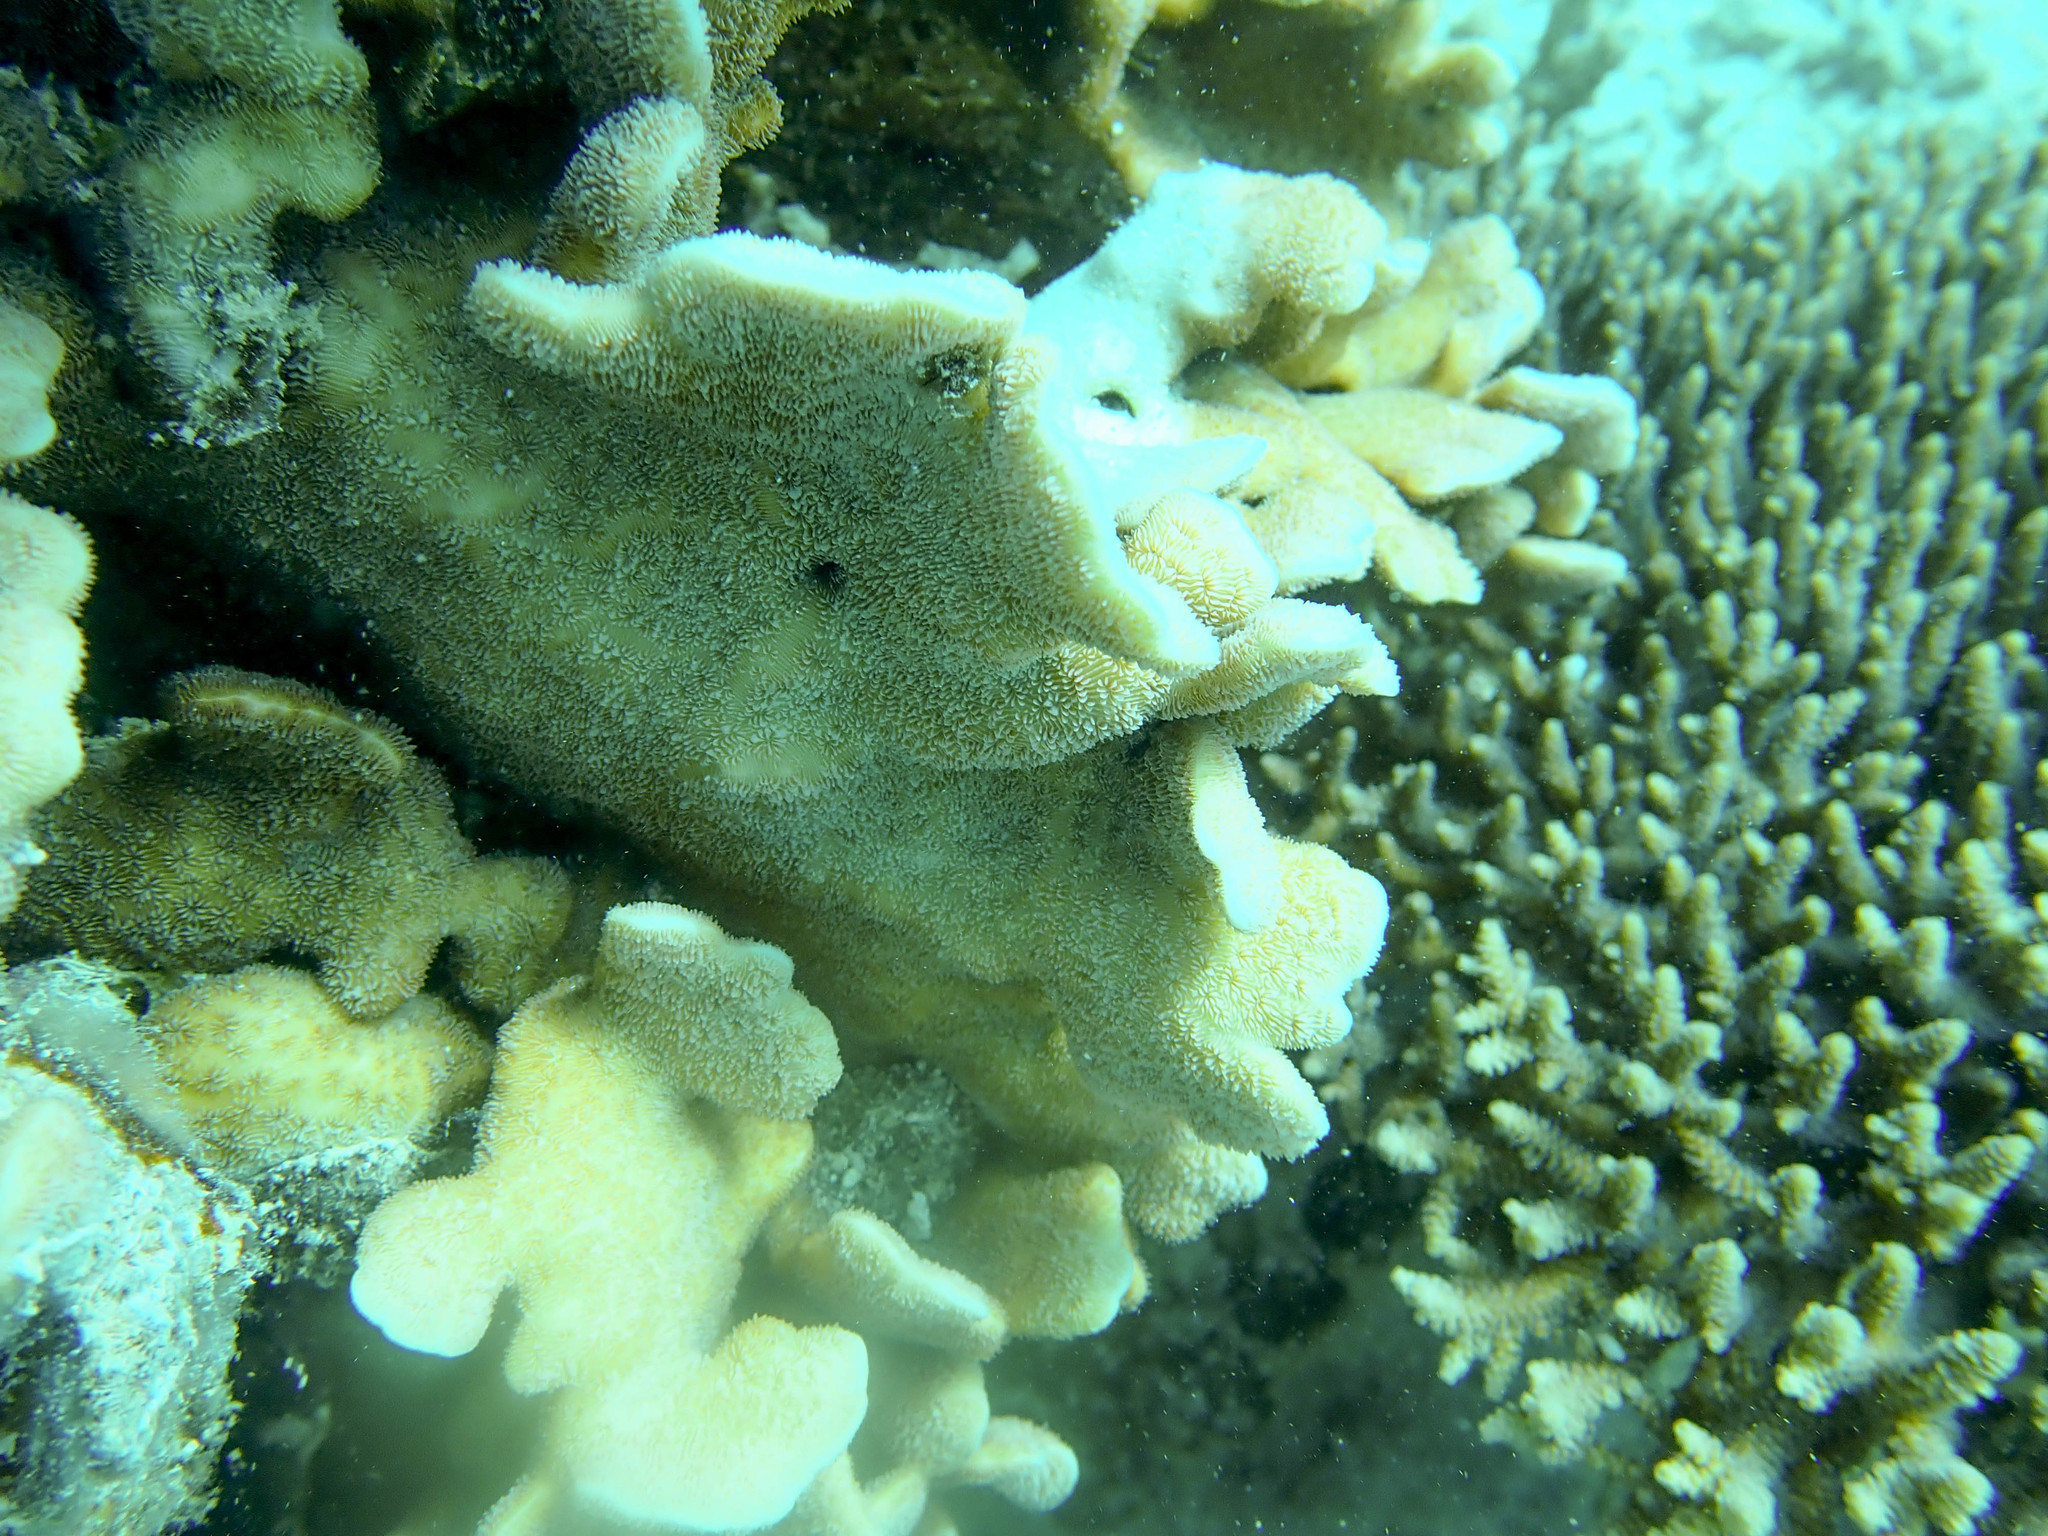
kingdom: Animalia
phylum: Cnidaria
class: Anthozoa
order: Scleractinia
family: Agariciidae
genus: Pavona
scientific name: Pavona decussata
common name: Leaf coral
